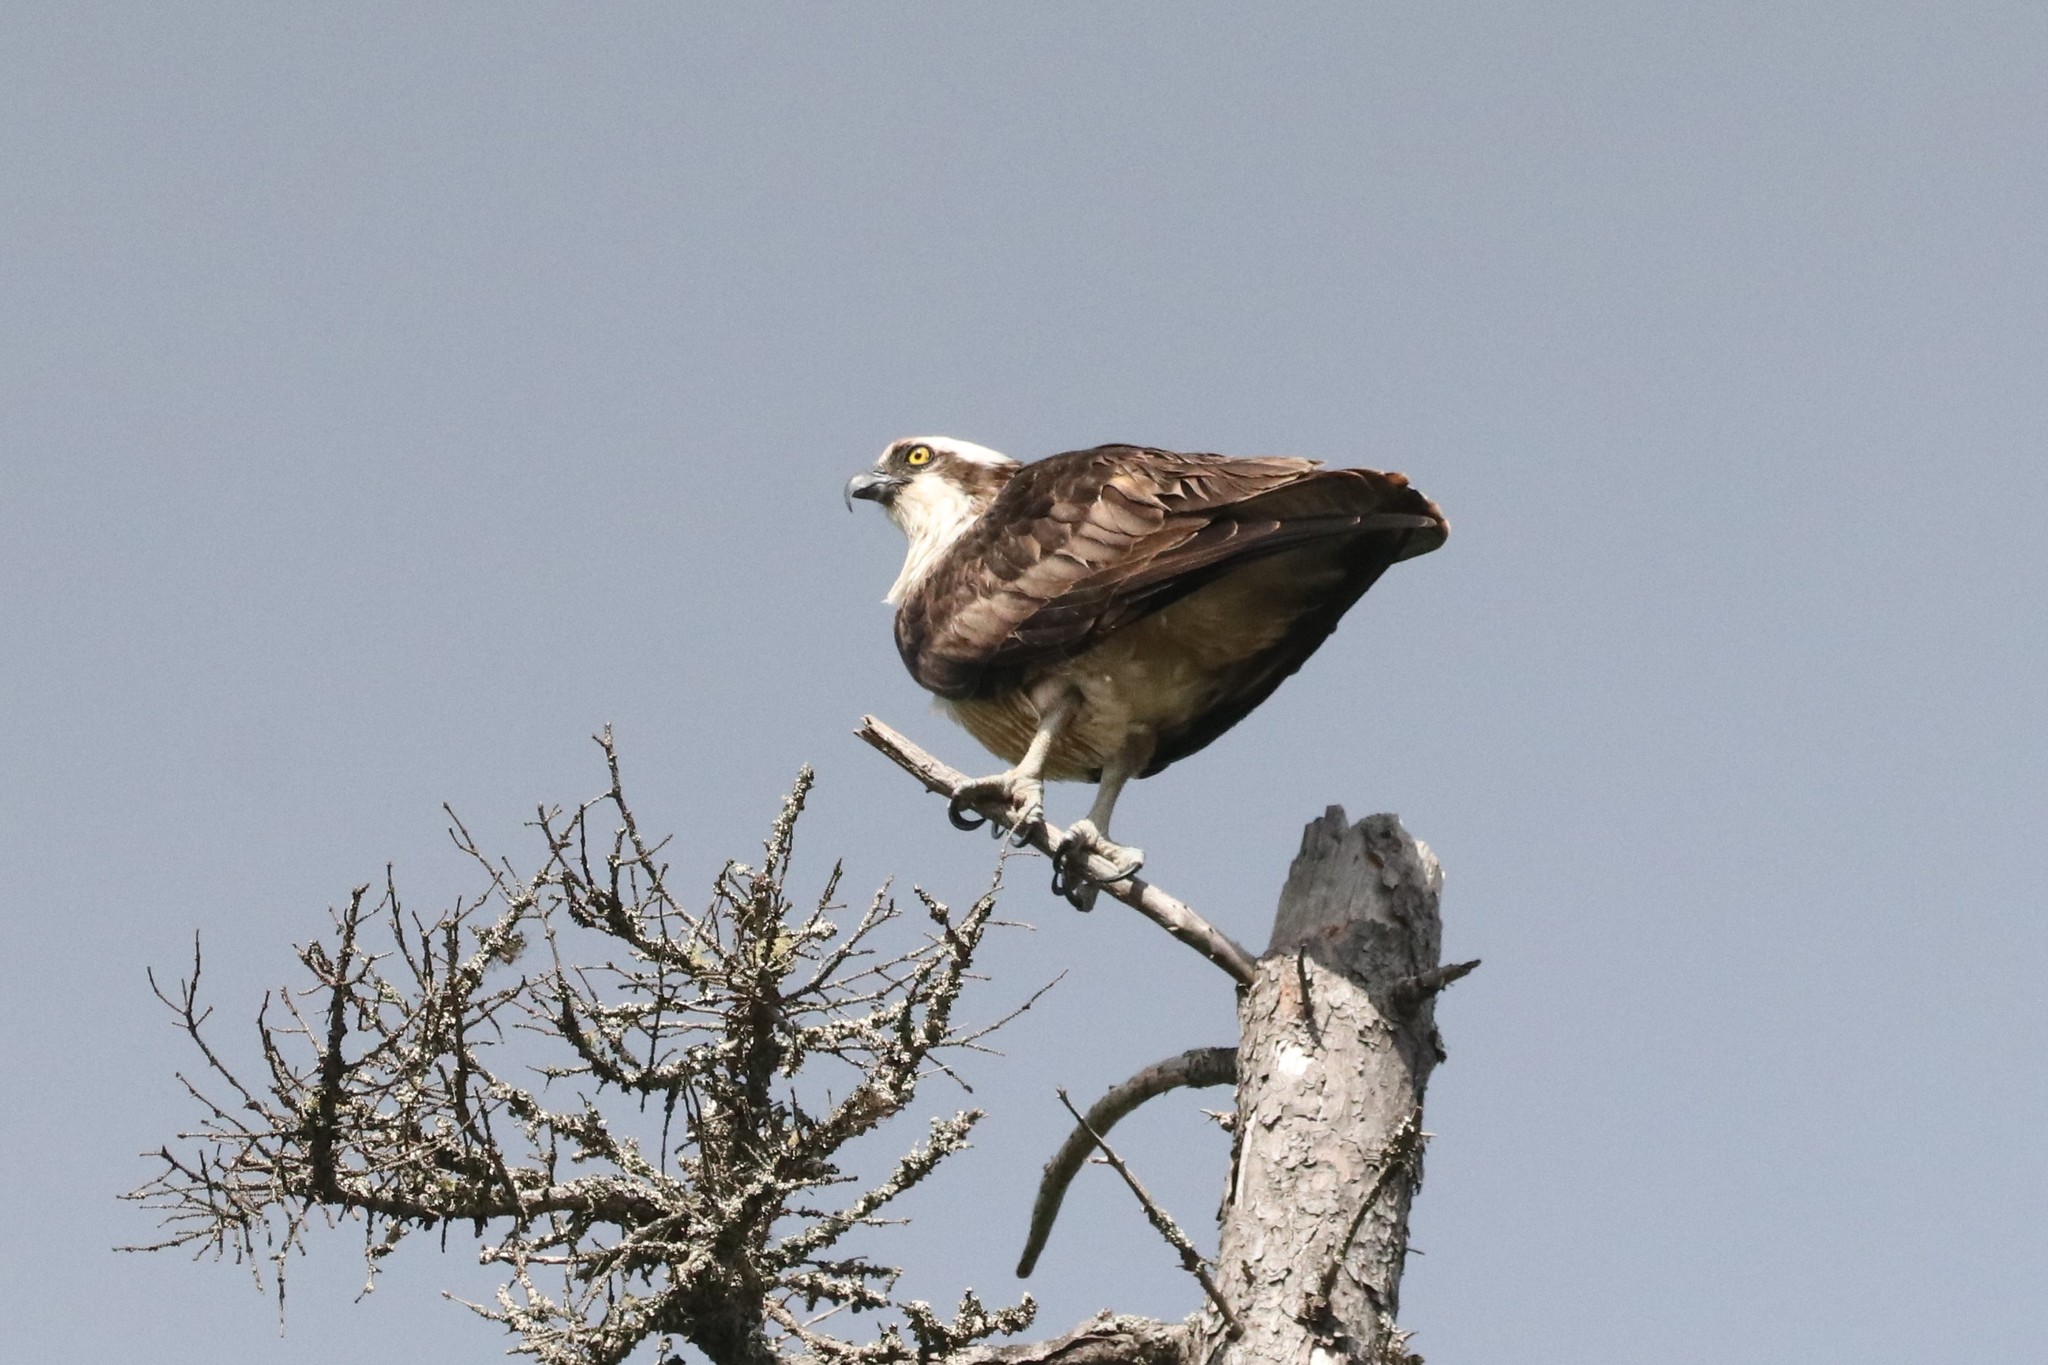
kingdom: Animalia
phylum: Chordata
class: Aves
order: Accipitriformes
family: Pandionidae
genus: Pandion
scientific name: Pandion haliaetus
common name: Osprey
